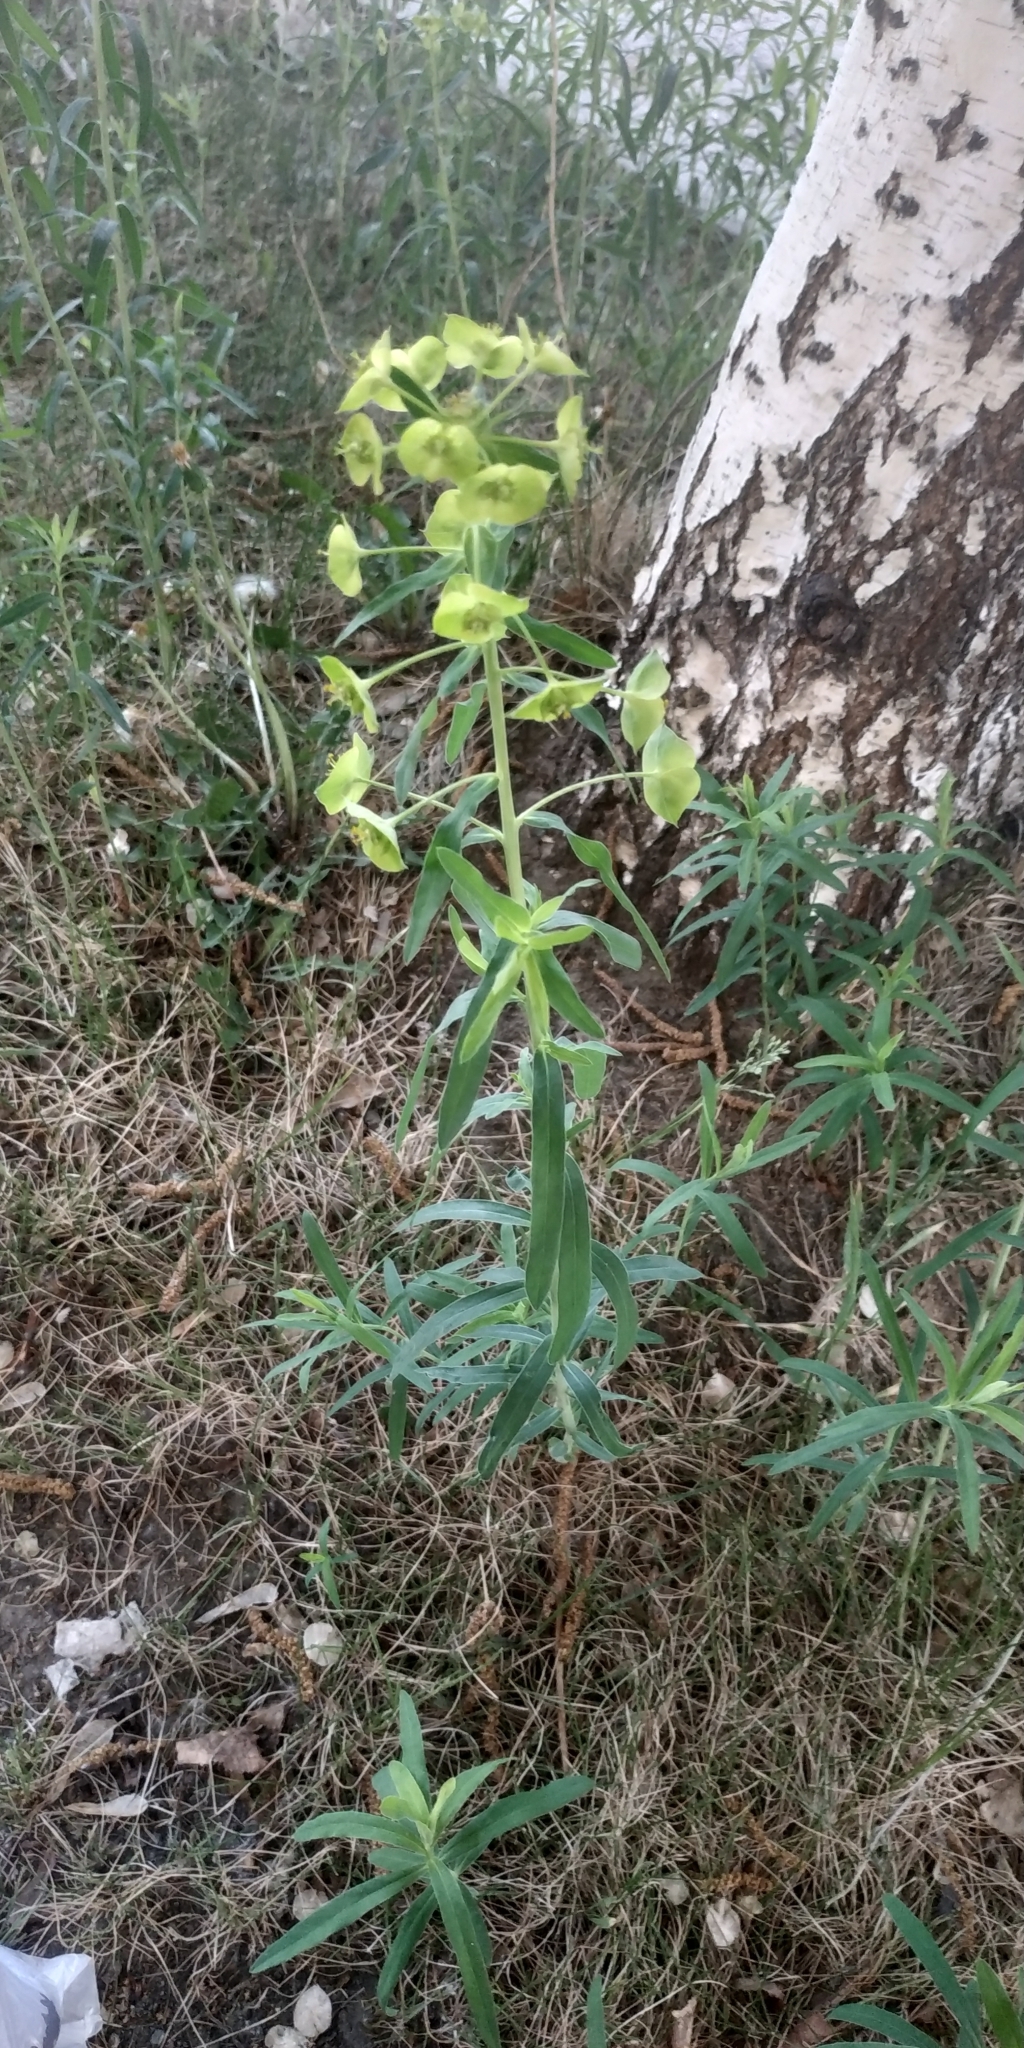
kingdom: Plantae
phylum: Tracheophyta
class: Magnoliopsida
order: Malpighiales
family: Euphorbiaceae
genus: Euphorbia
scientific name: Euphorbia virgata
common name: Leafy spurge
